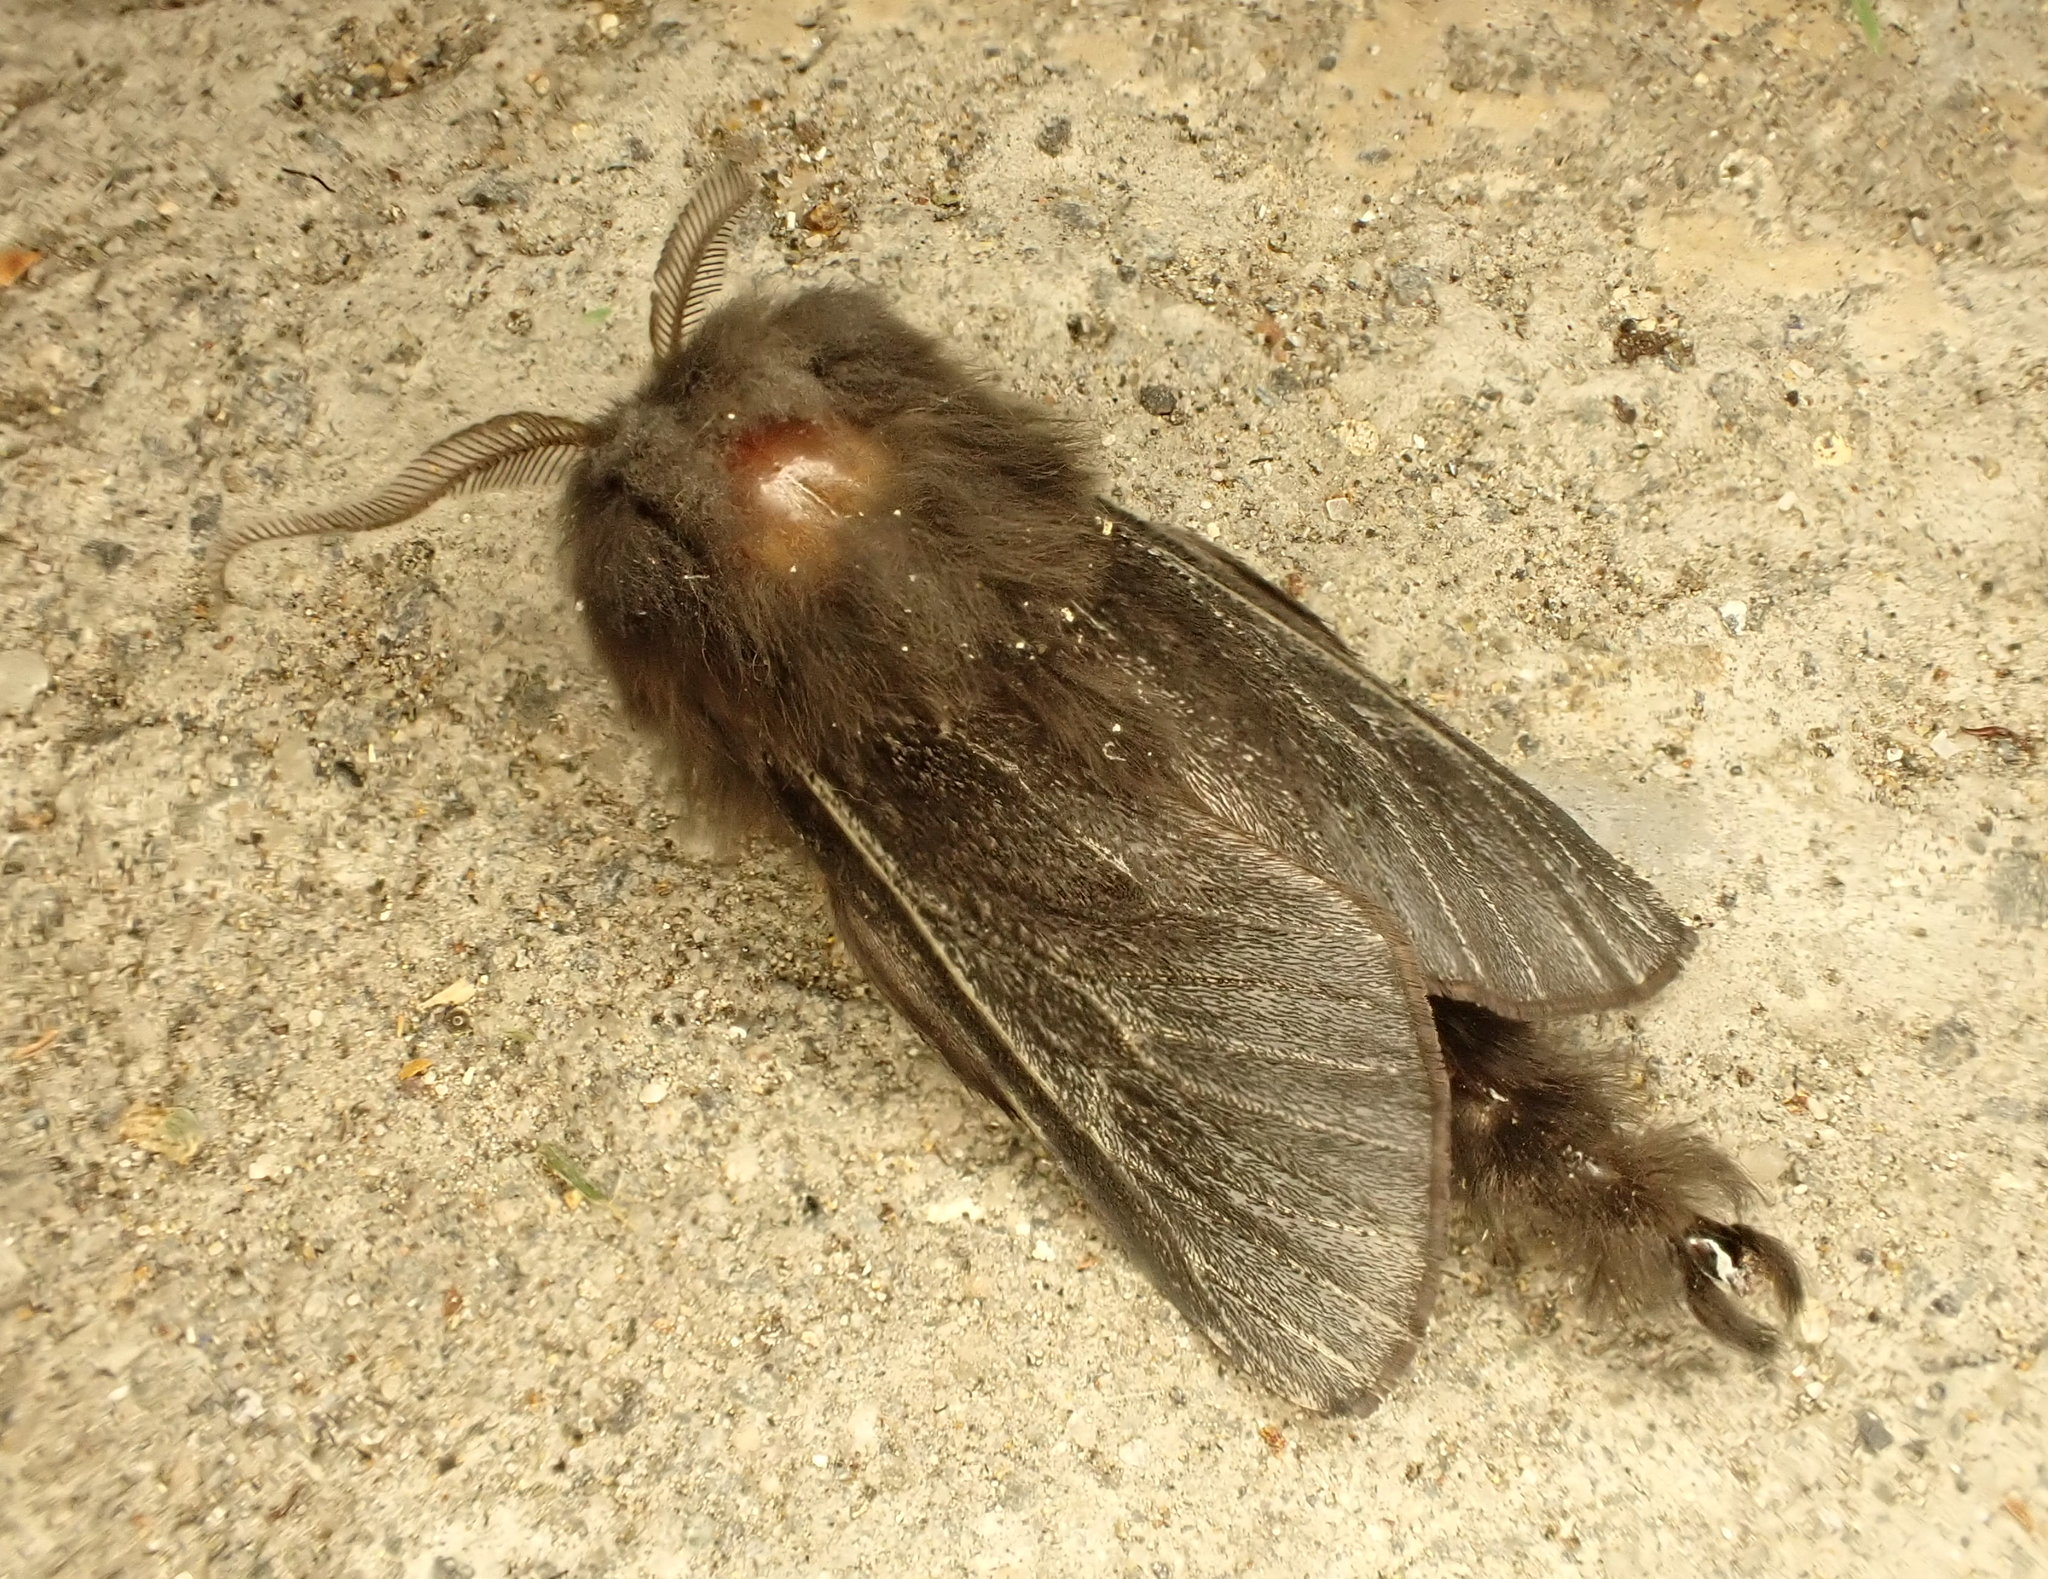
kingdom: Animalia
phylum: Arthropoda
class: Insecta
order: Lepidoptera
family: Psychidae
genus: Liothula
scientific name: Liothula omnivora
